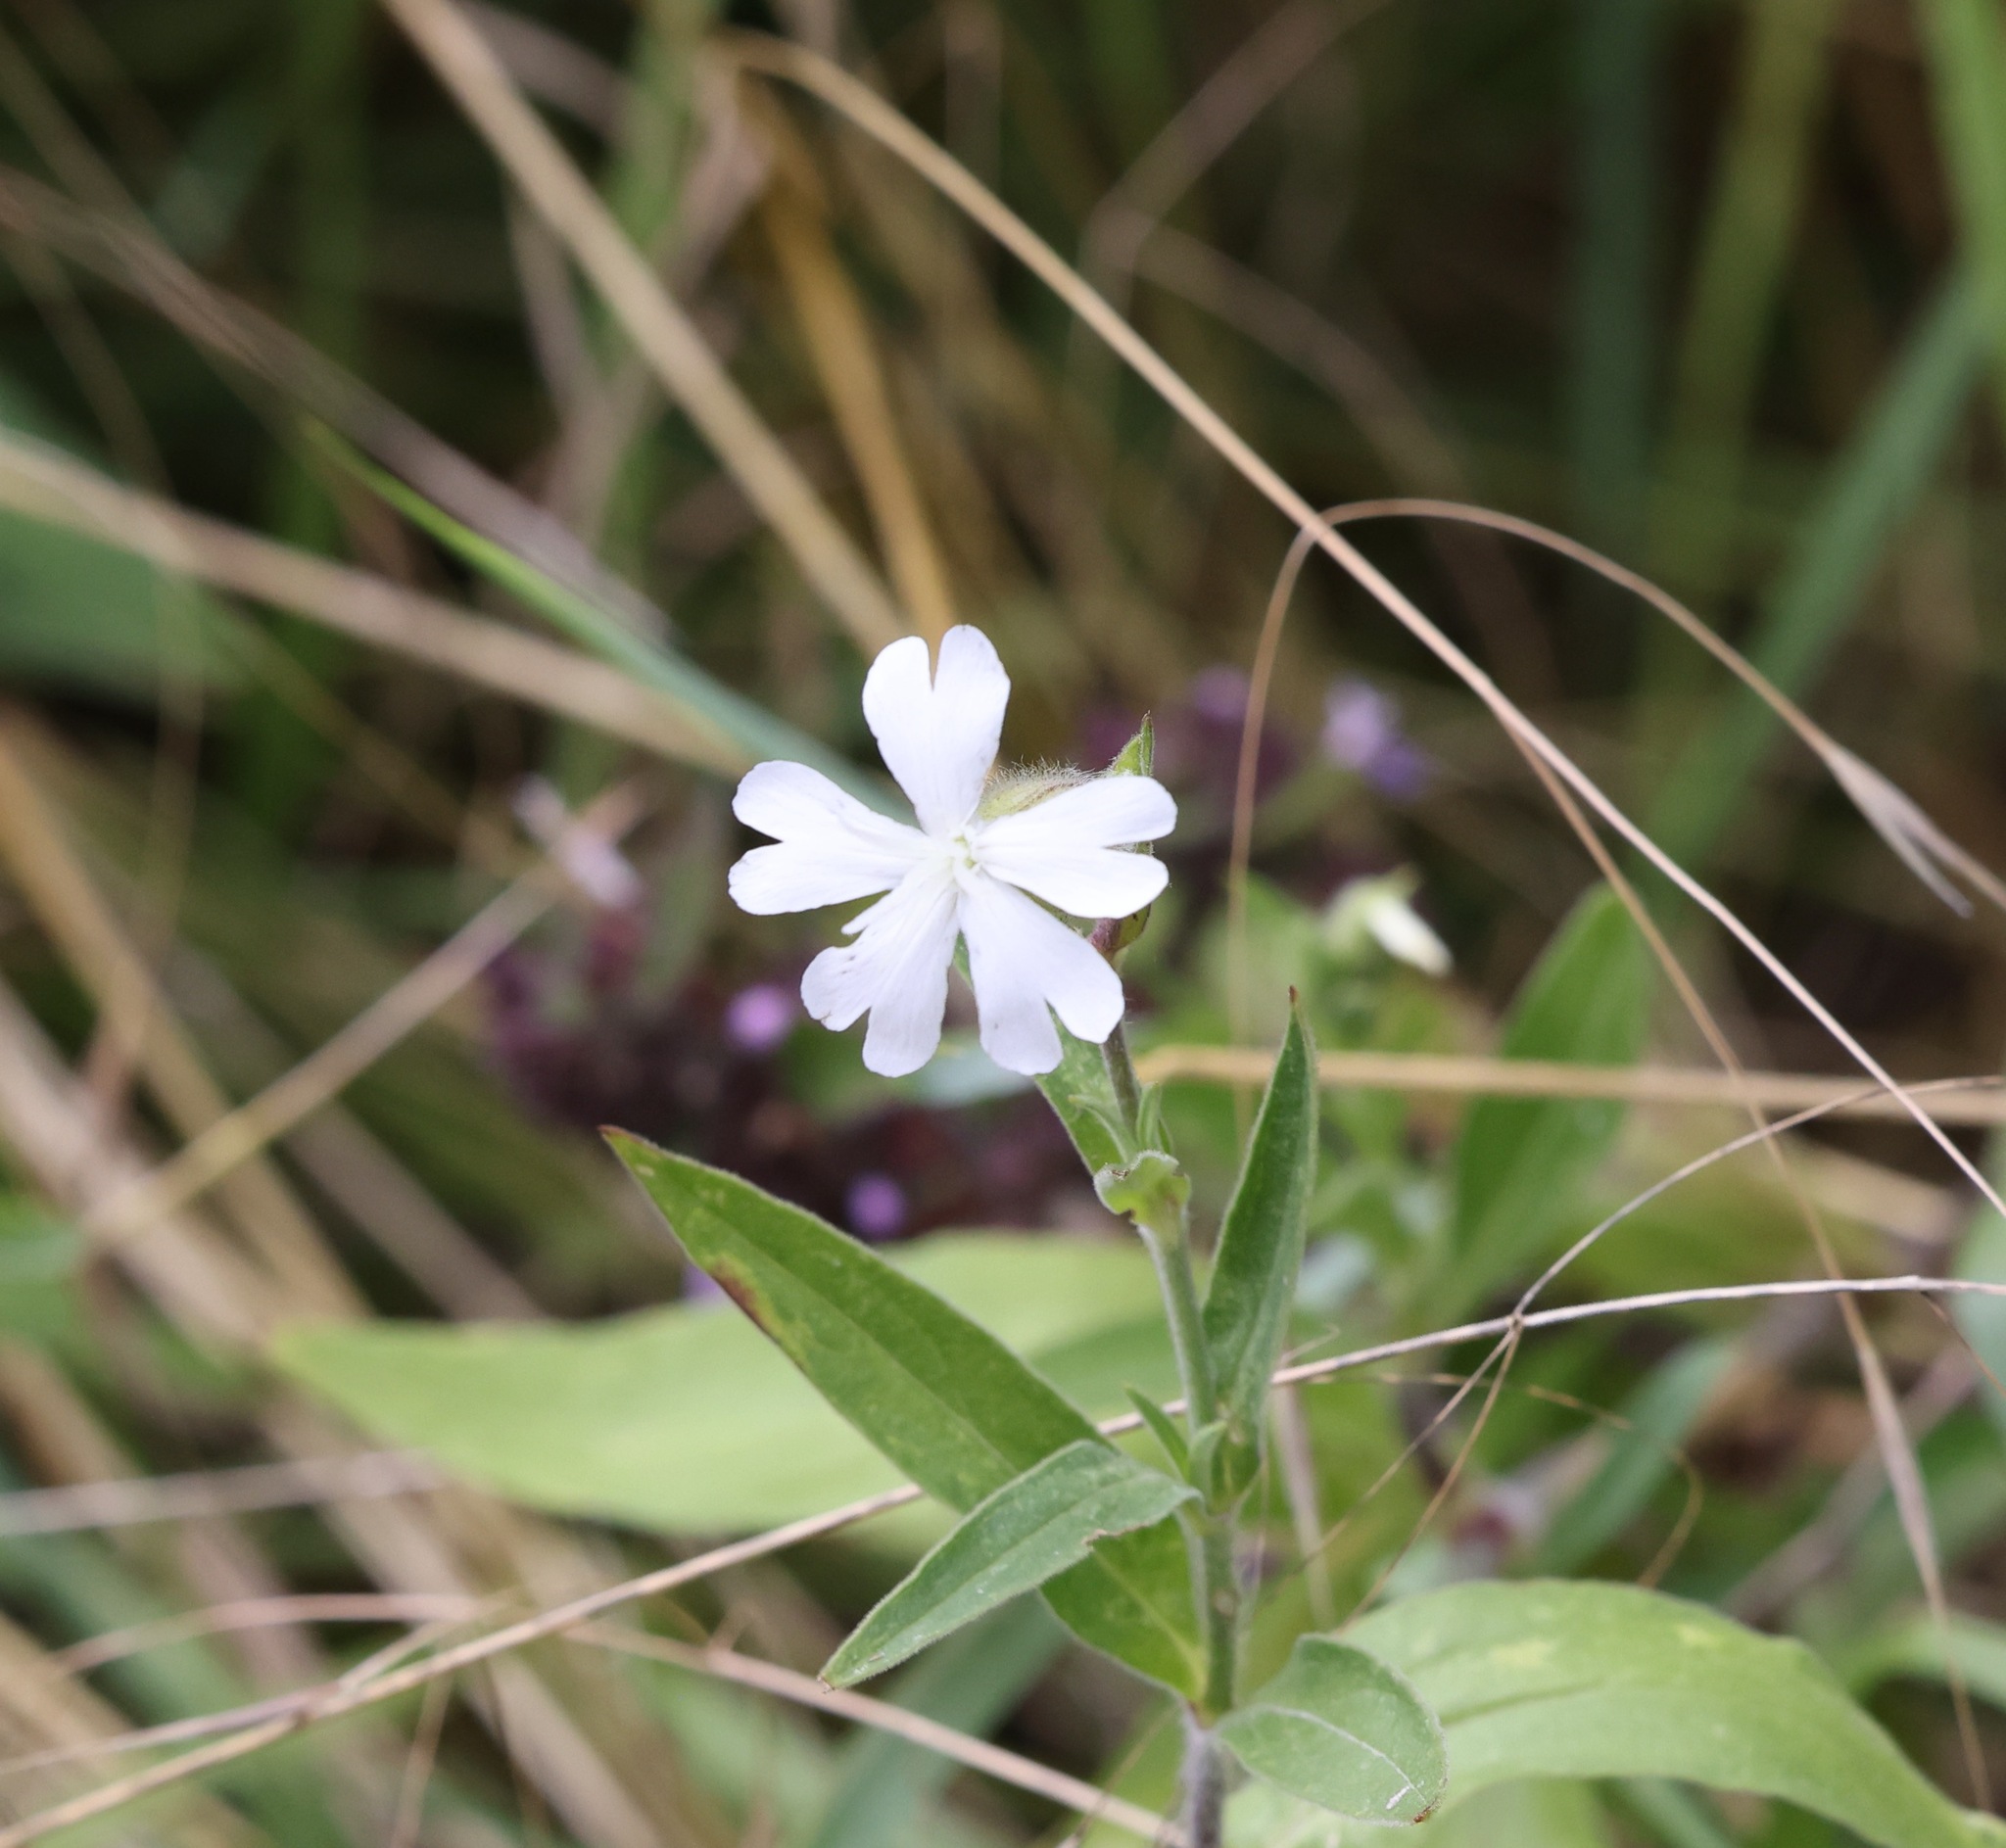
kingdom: Plantae
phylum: Tracheophyta
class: Magnoliopsida
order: Caryophyllales
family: Caryophyllaceae
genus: Silene
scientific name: Silene latifolia
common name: White campion
